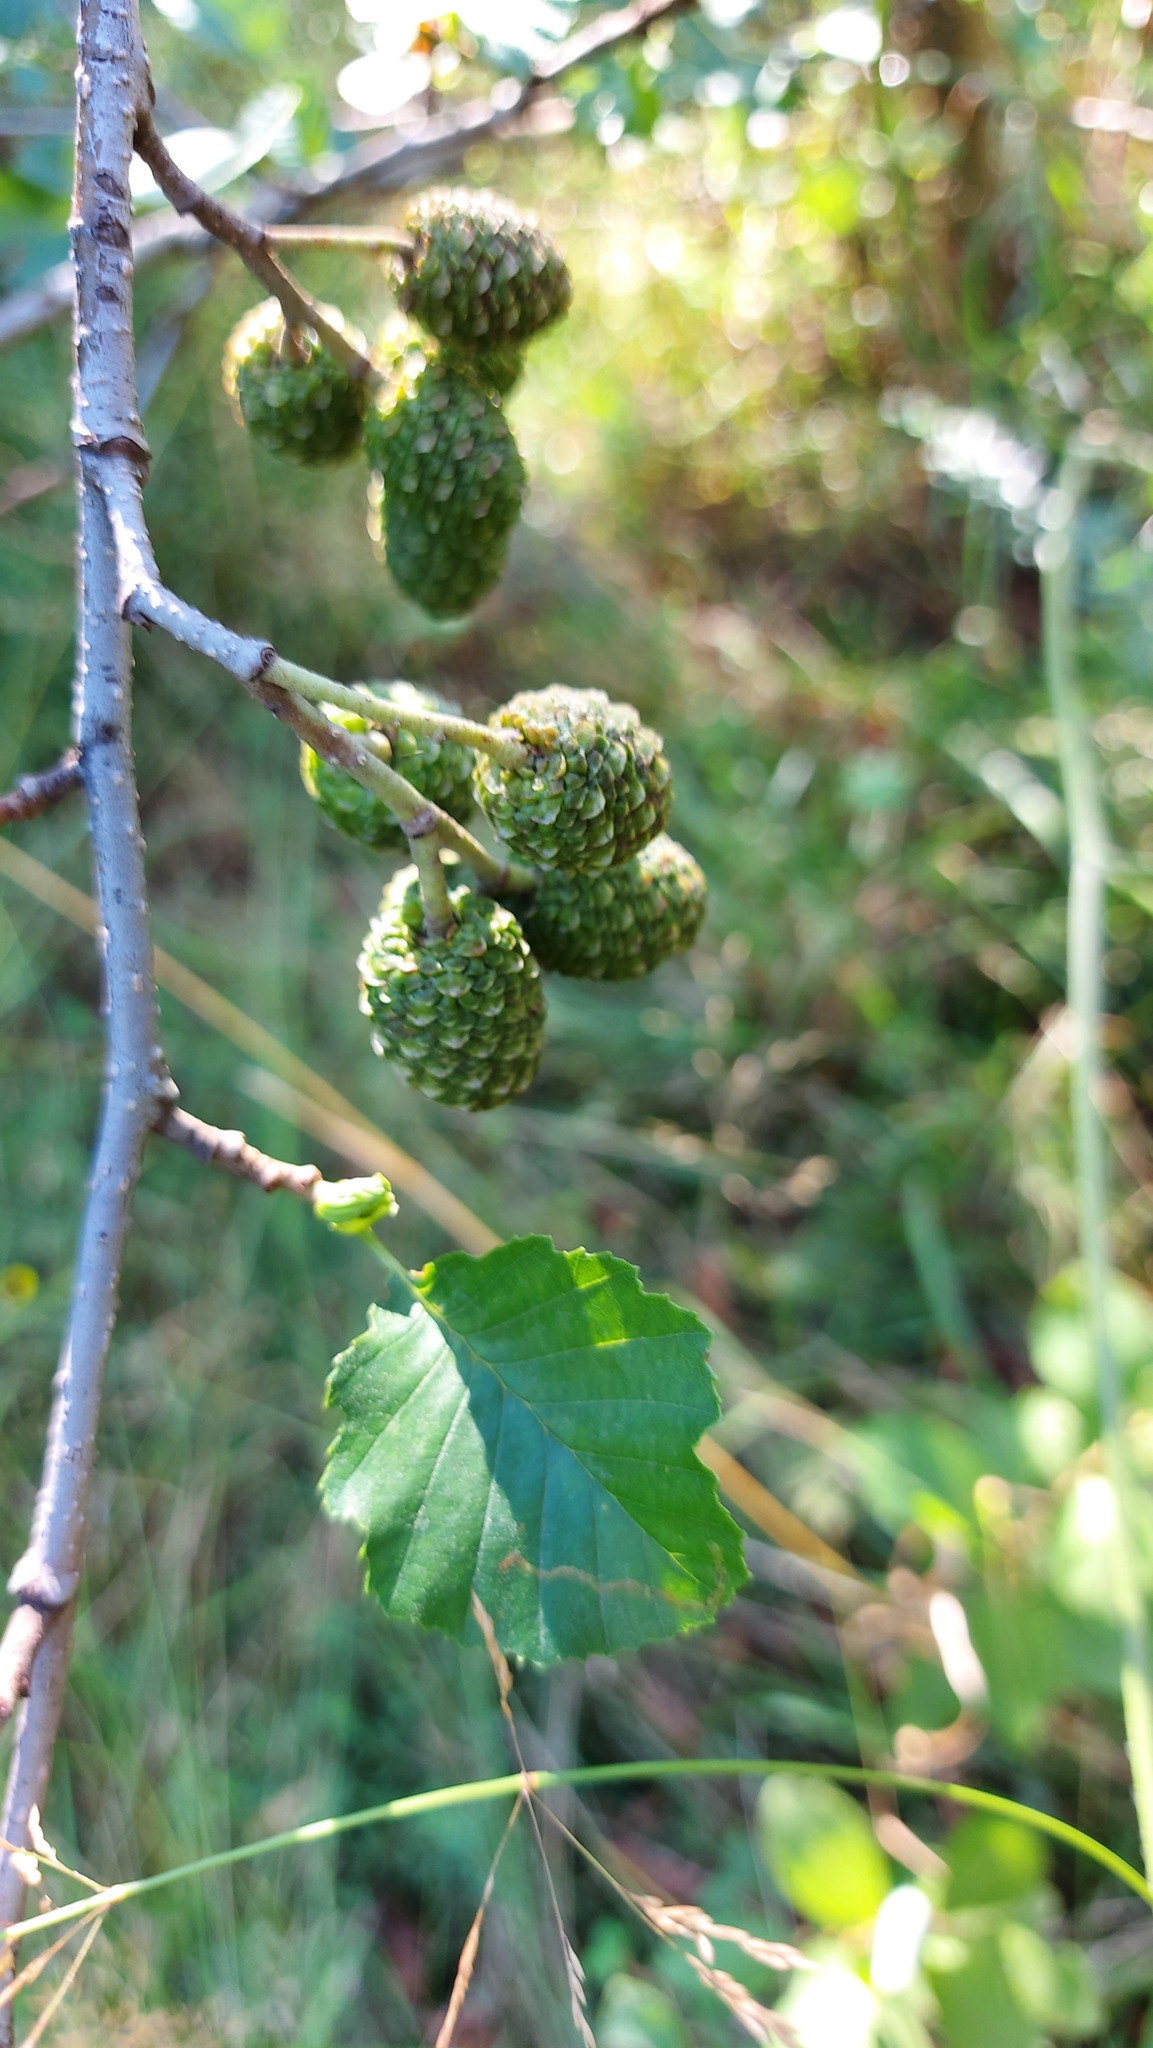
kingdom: Plantae
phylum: Tracheophyta
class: Magnoliopsida
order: Fagales
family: Betulaceae
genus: Alnus
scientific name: Alnus glutinosa
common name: Black alder
